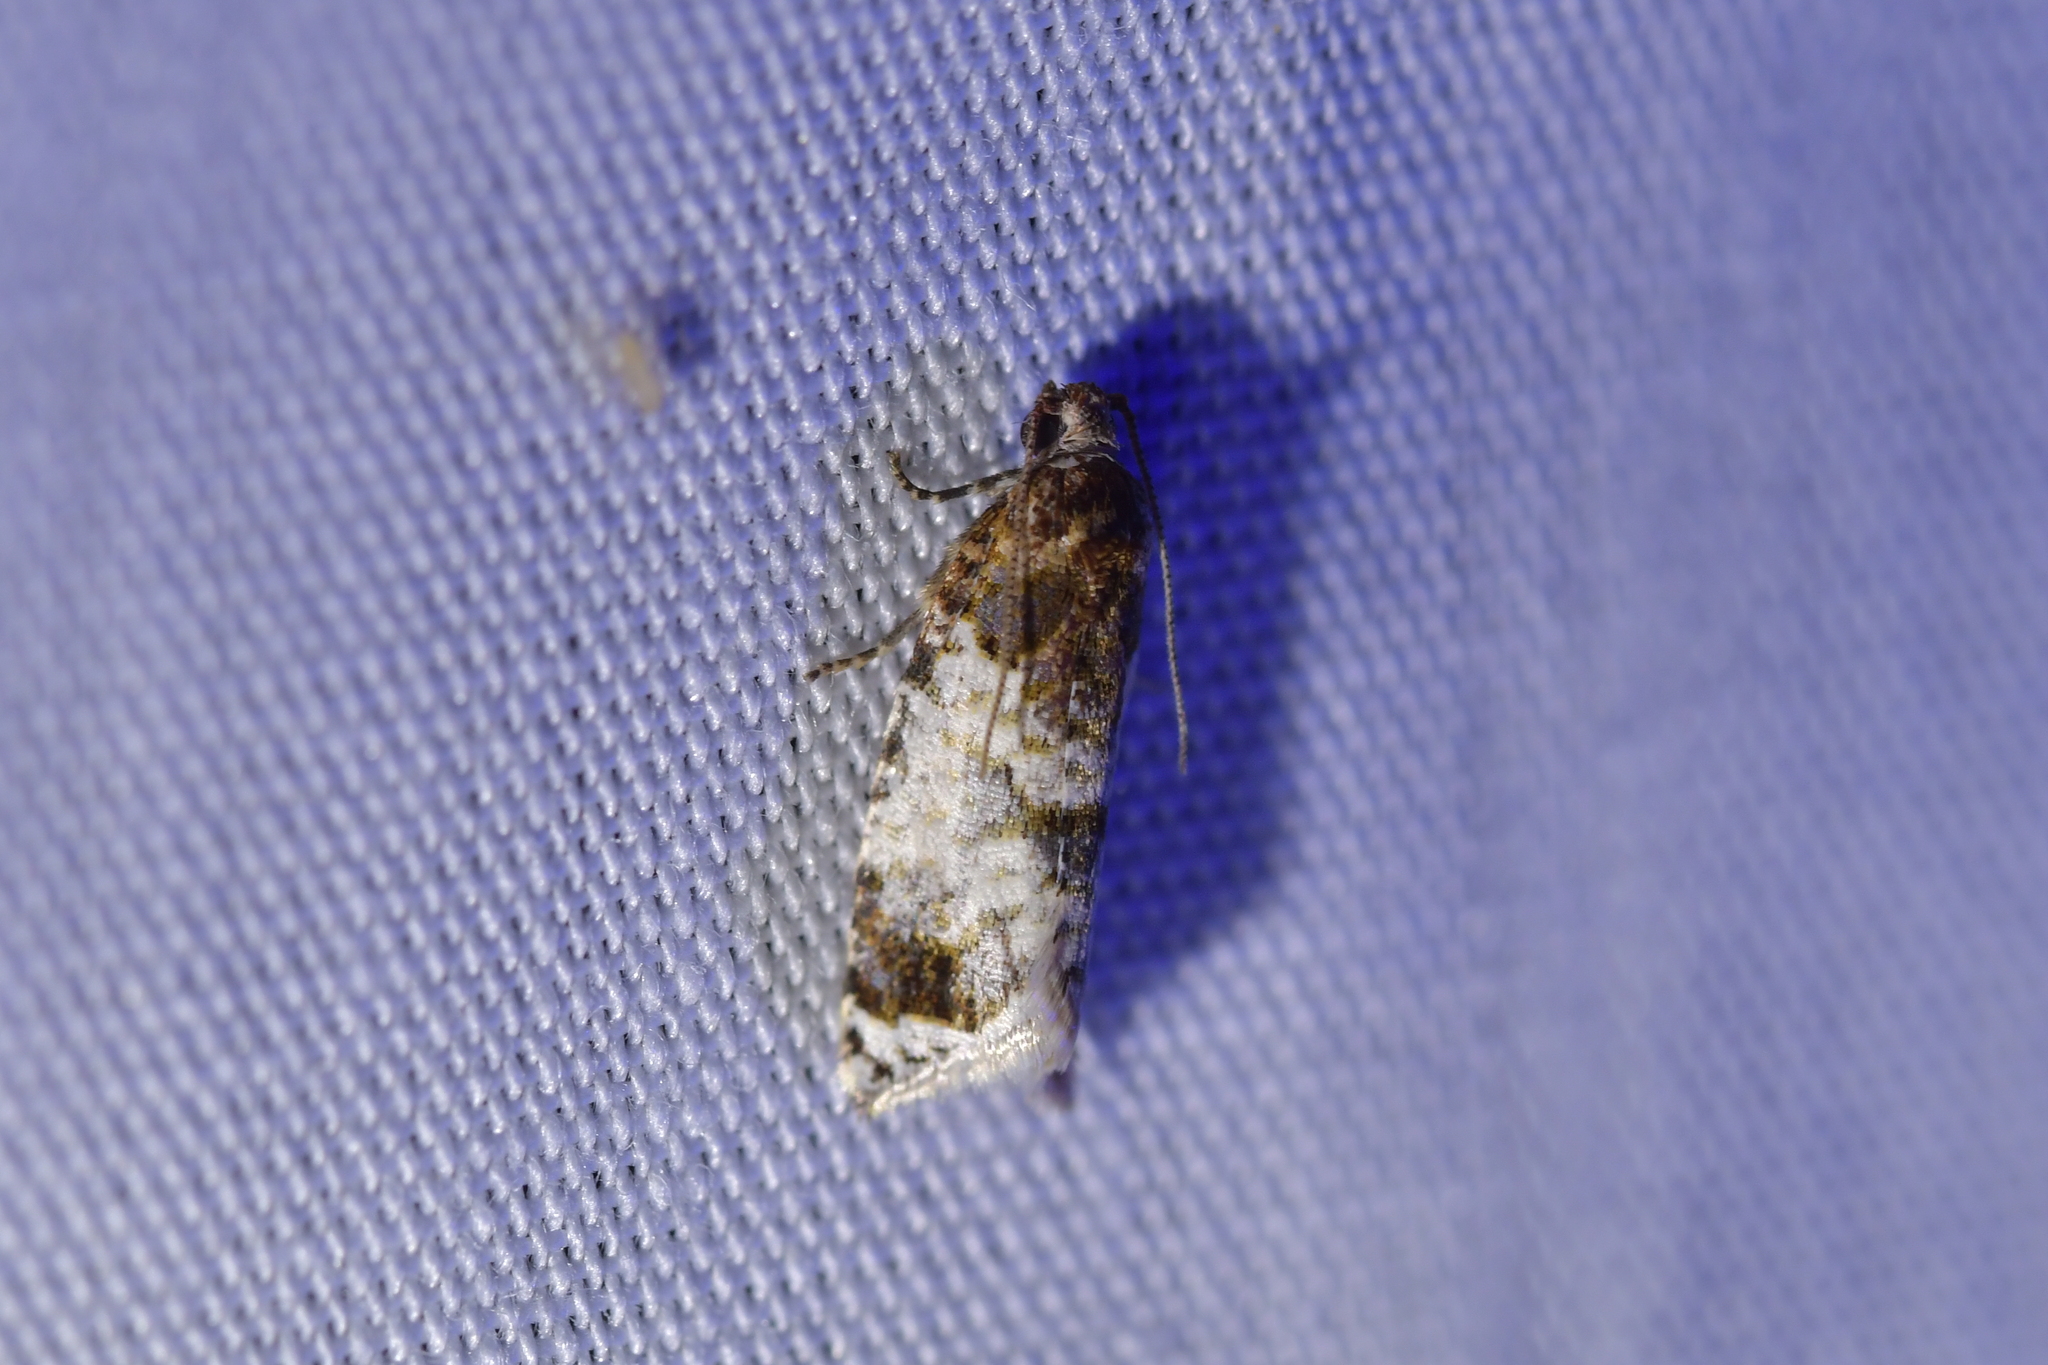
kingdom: Animalia
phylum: Arthropoda
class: Insecta
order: Lepidoptera
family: Tortricidae
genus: Pyrgotis
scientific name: Pyrgotis calligypsa
